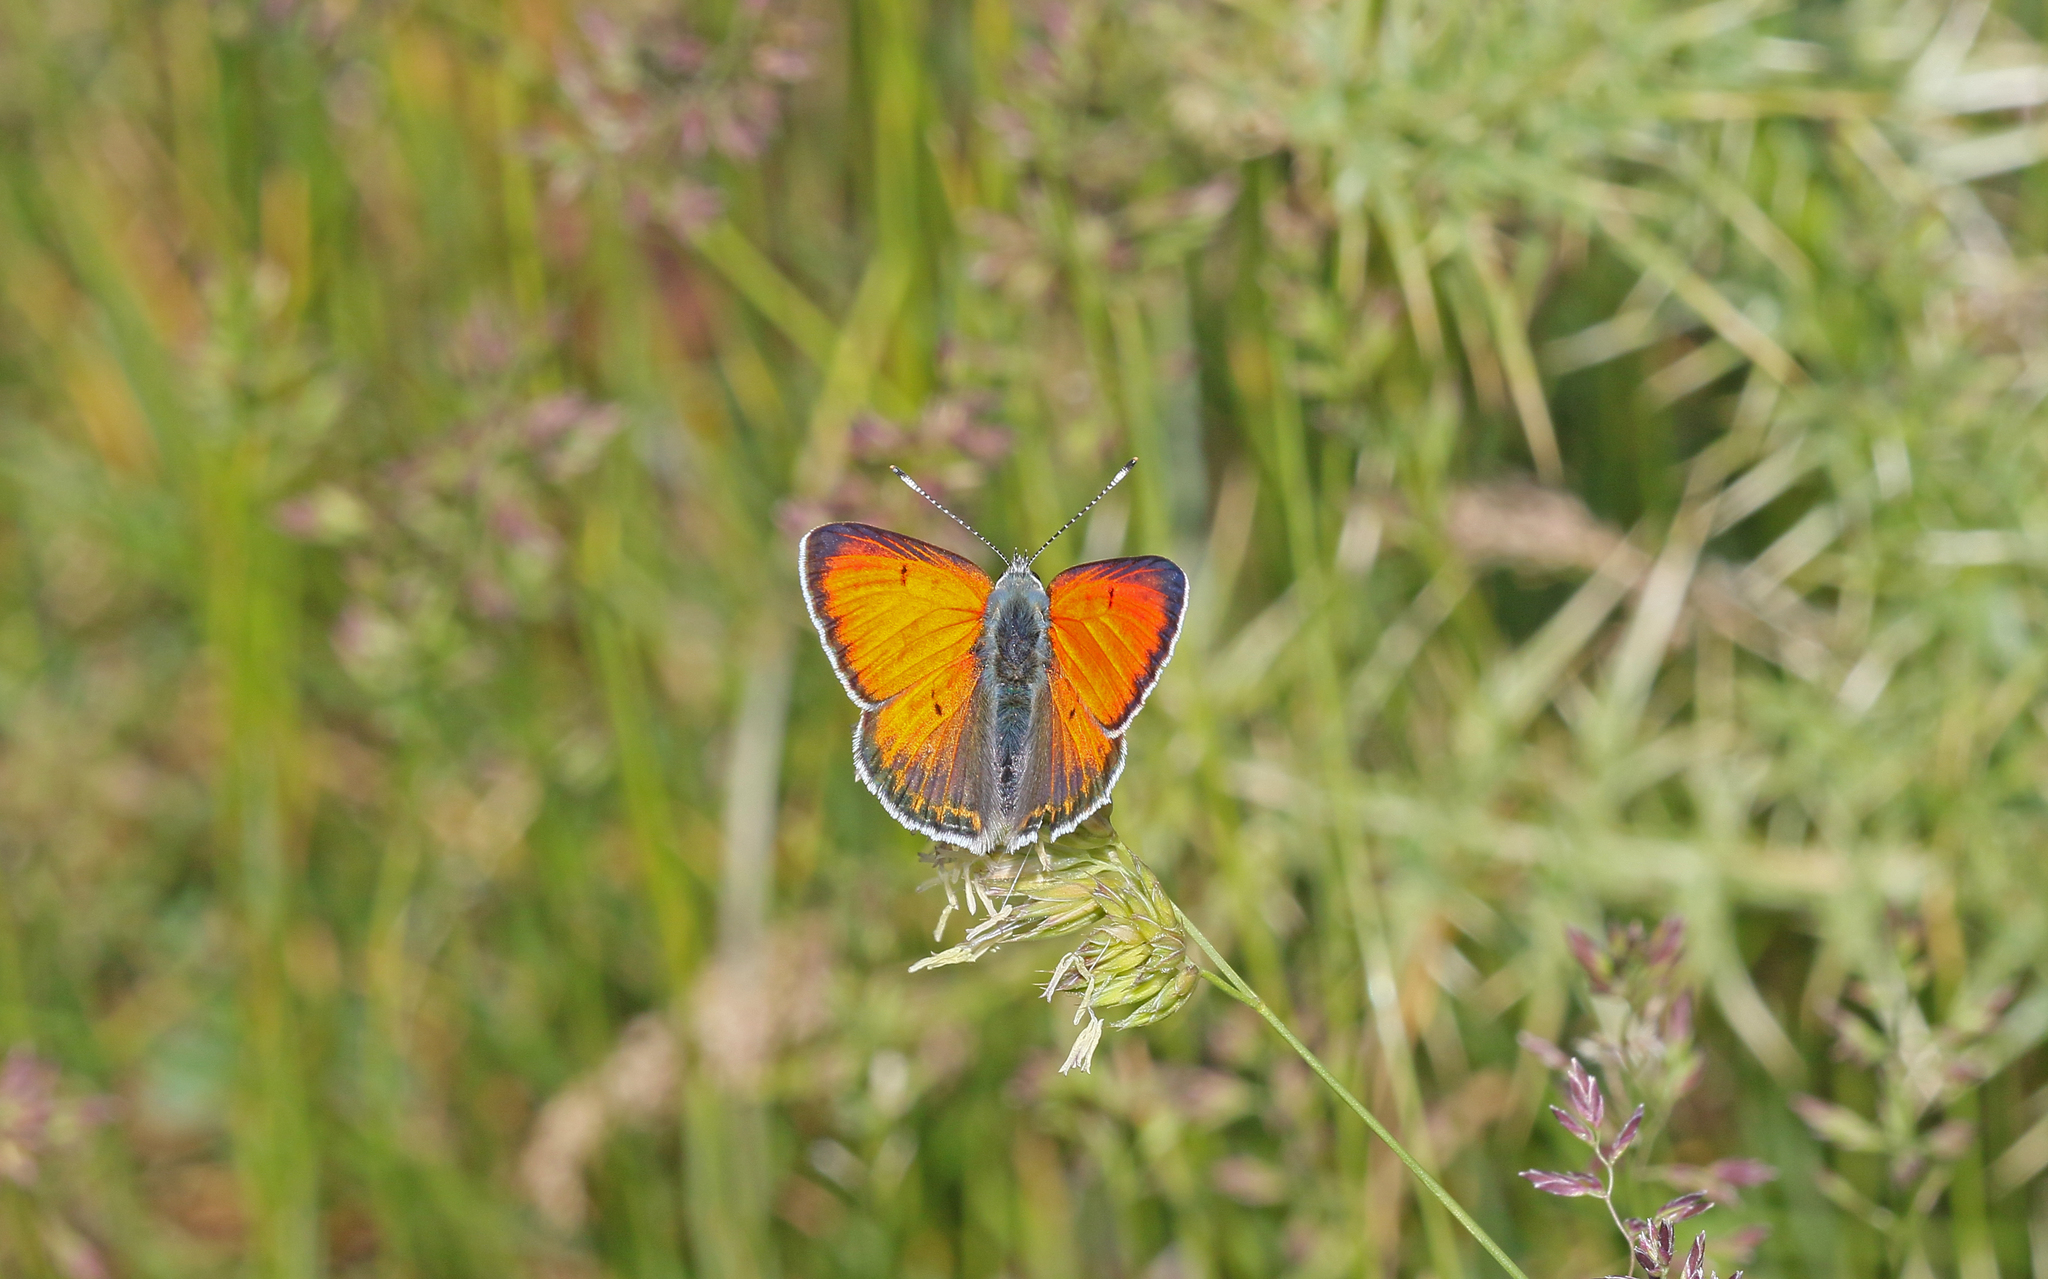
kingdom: Animalia
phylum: Arthropoda
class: Insecta
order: Lepidoptera
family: Lycaenidae
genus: Palaeochrysophanus
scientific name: Palaeochrysophanus candens
